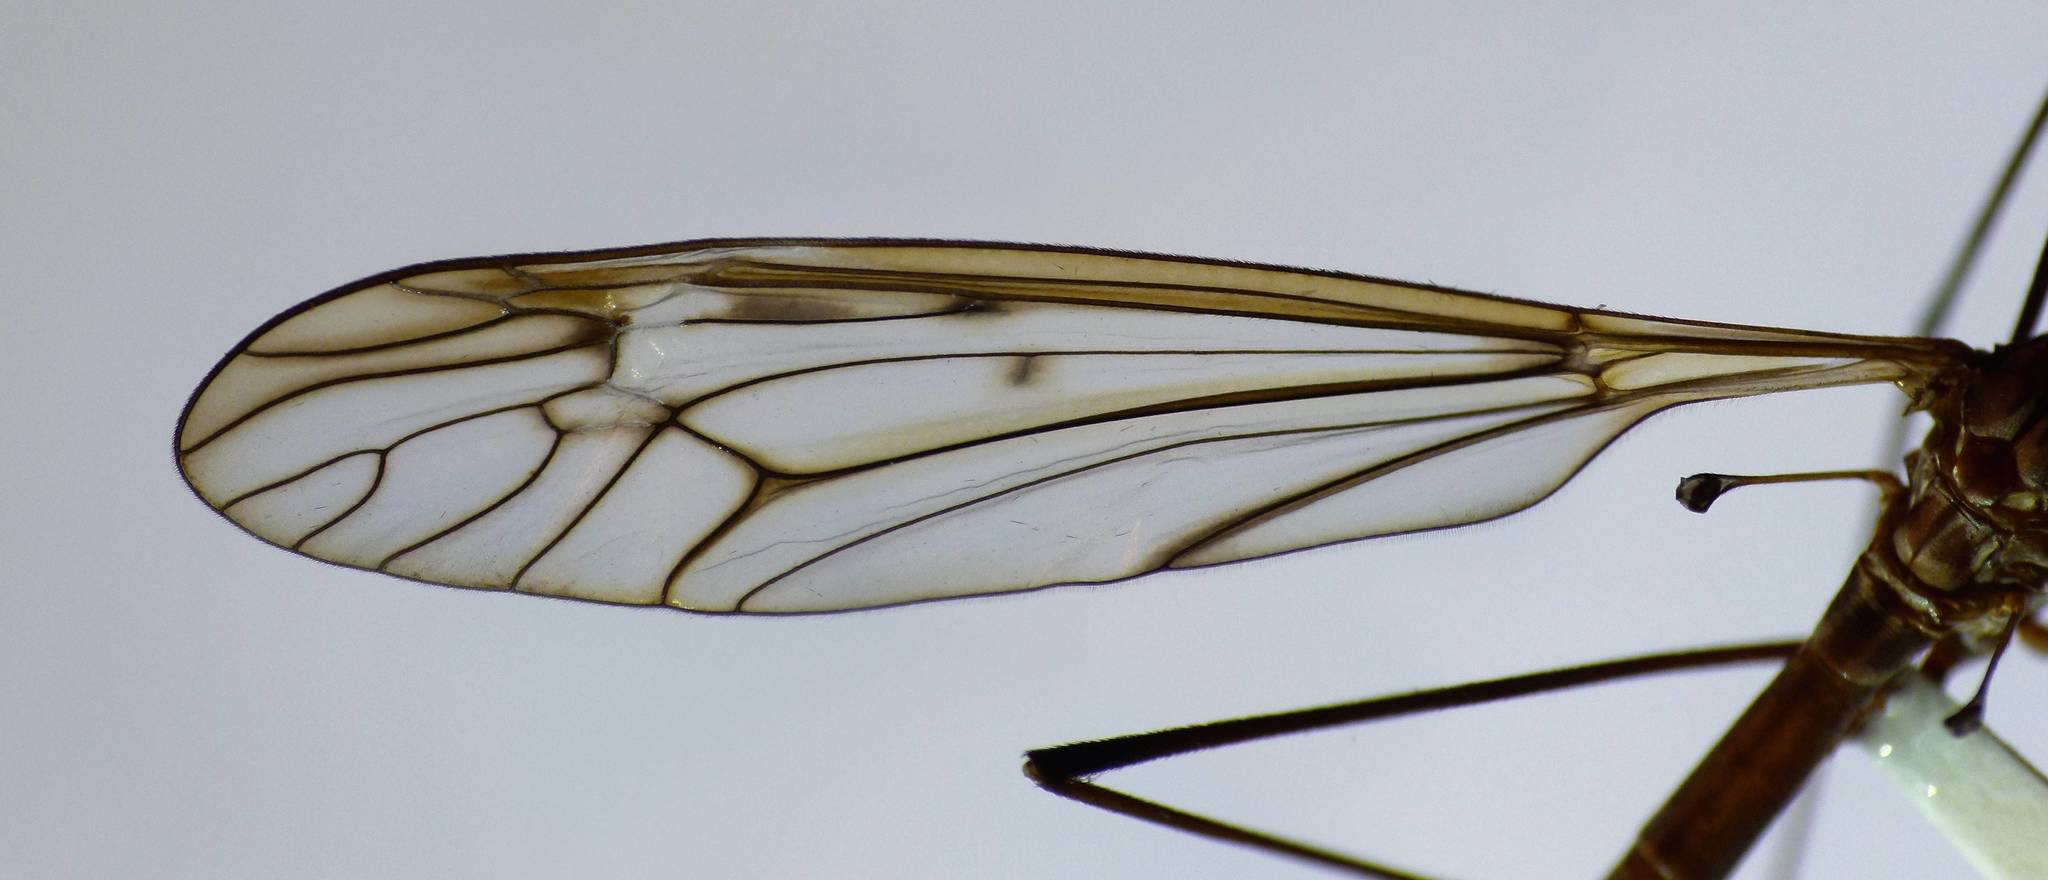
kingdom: Animalia
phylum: Arthropoda
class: Insecta
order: Diptera
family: Tipulidae
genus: Zelandotipula
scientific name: Zelandotipula novarae
